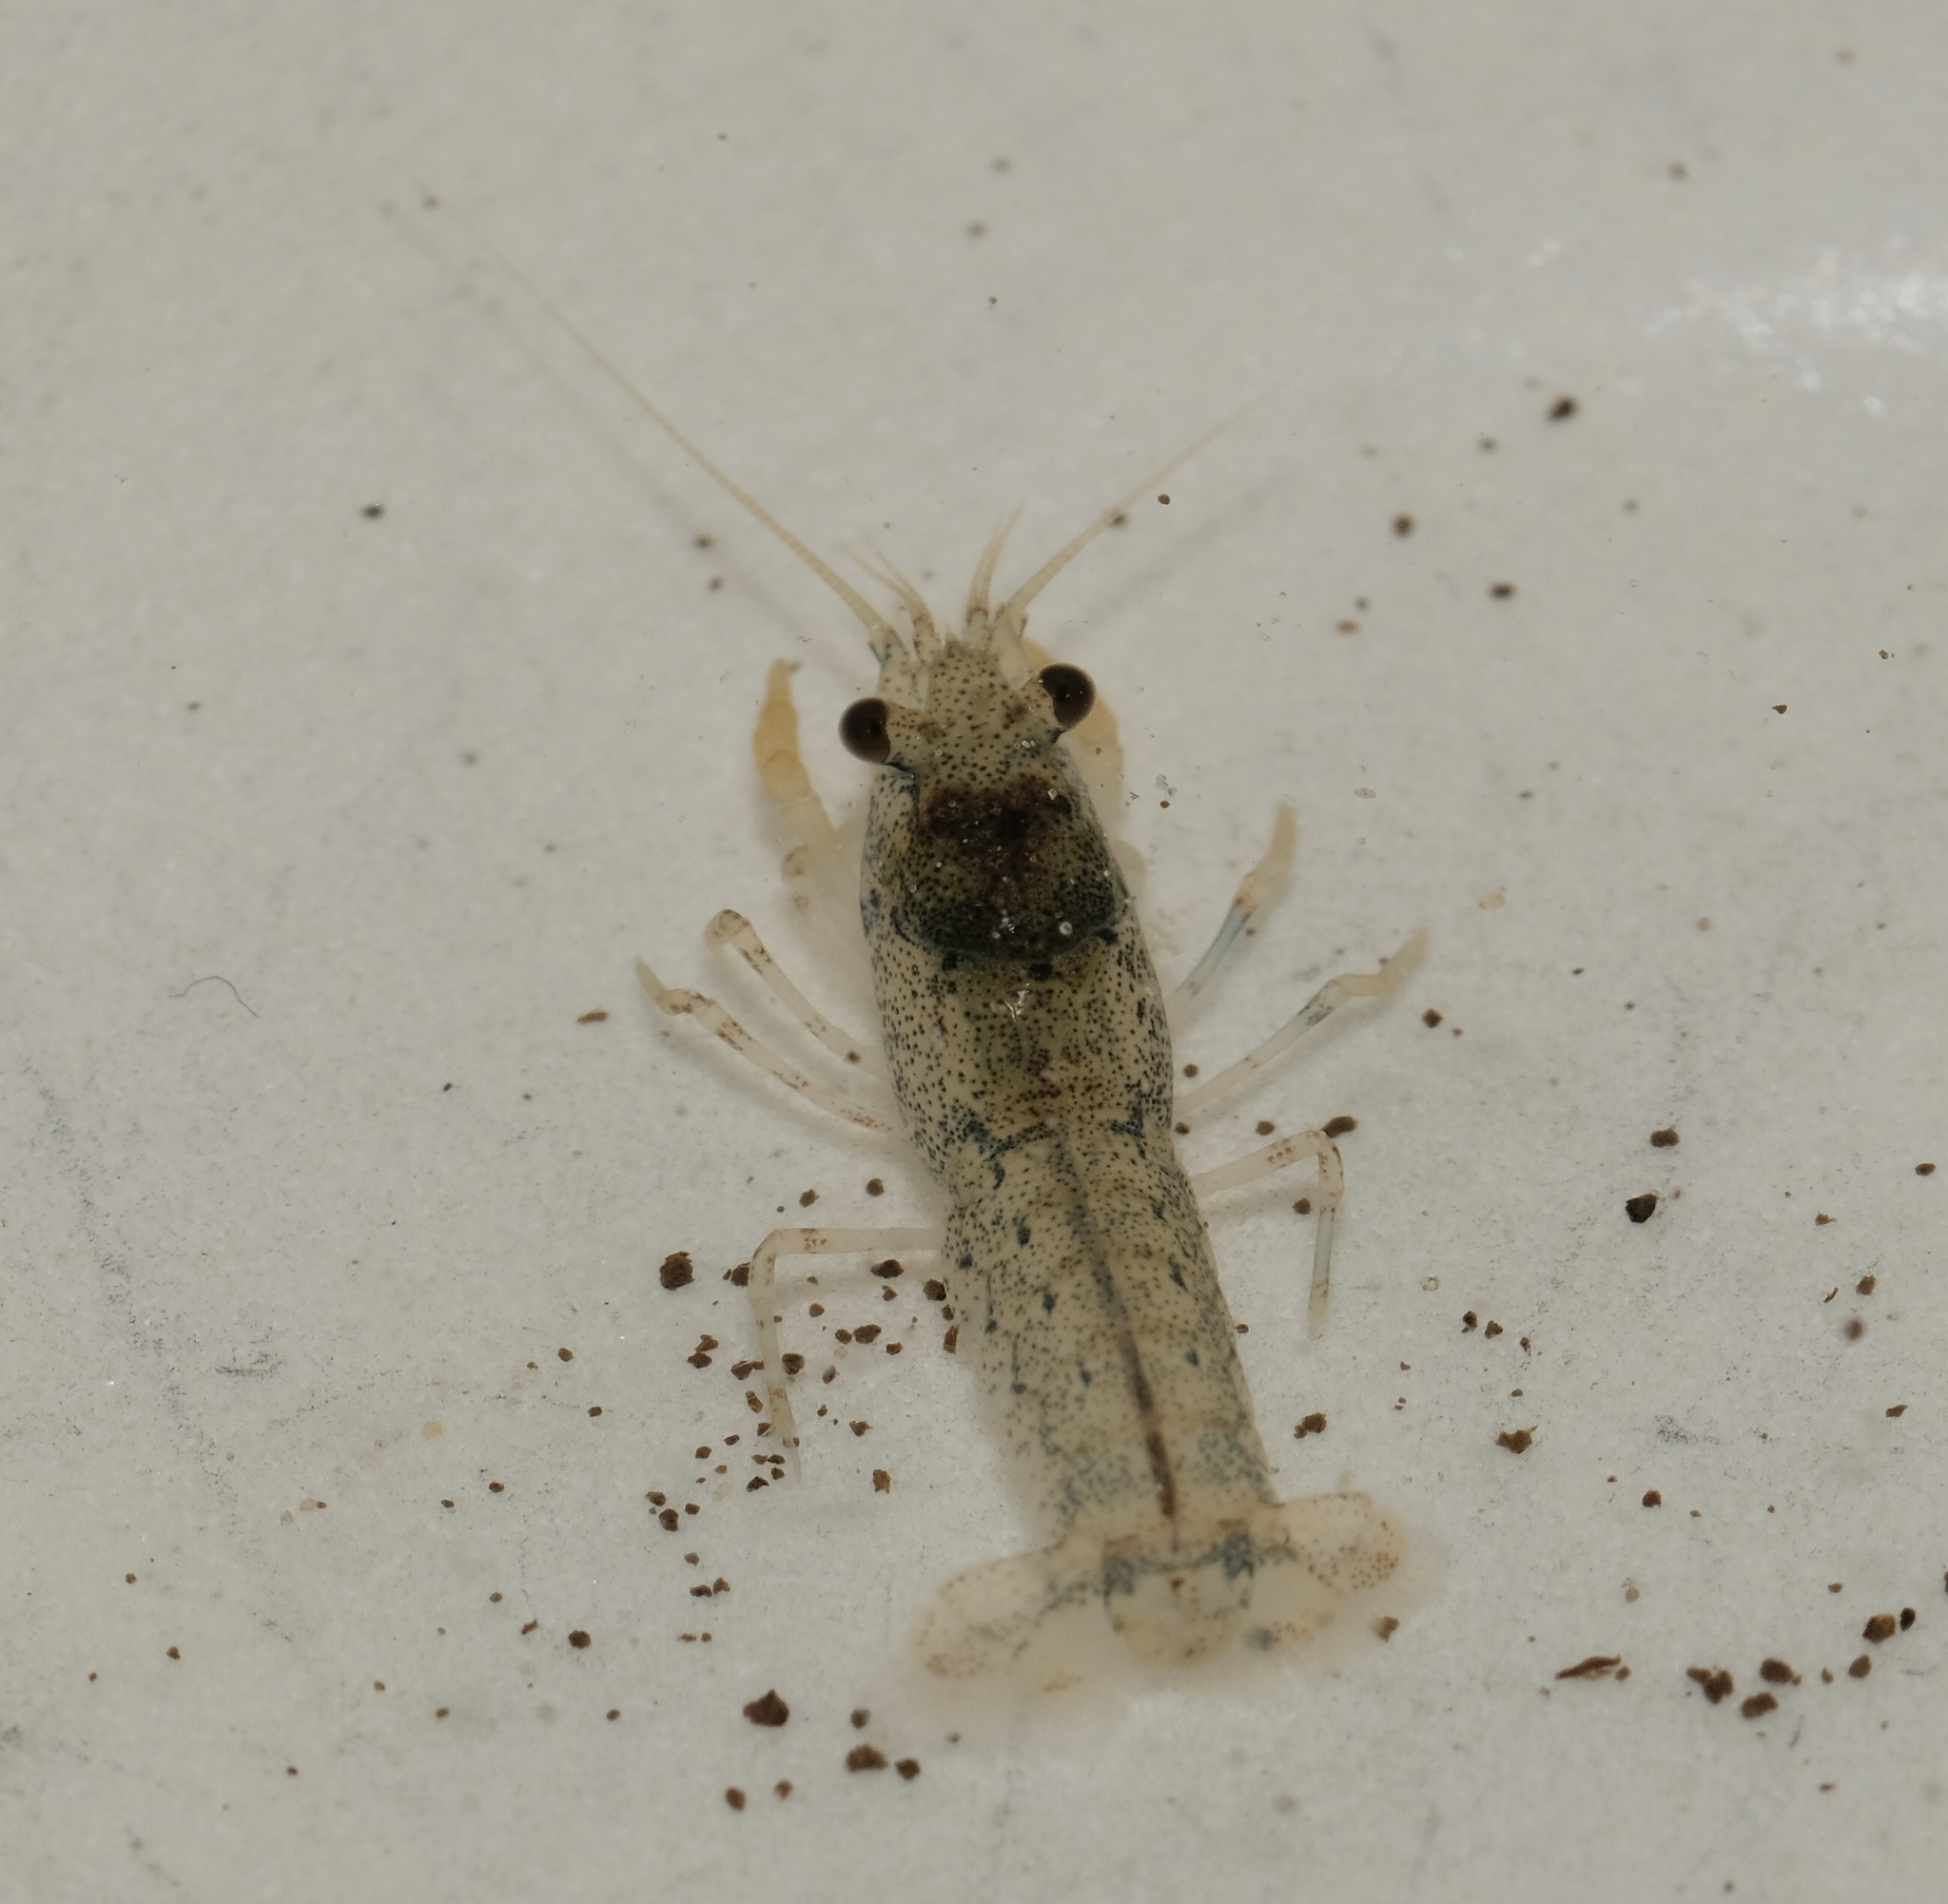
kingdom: Animalia
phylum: Arthropoda
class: Malacostraca
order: Decapoda
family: Cambaridae
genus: Cambarellus
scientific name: Cambarellus puer
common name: Swamp dwarf crayfish
